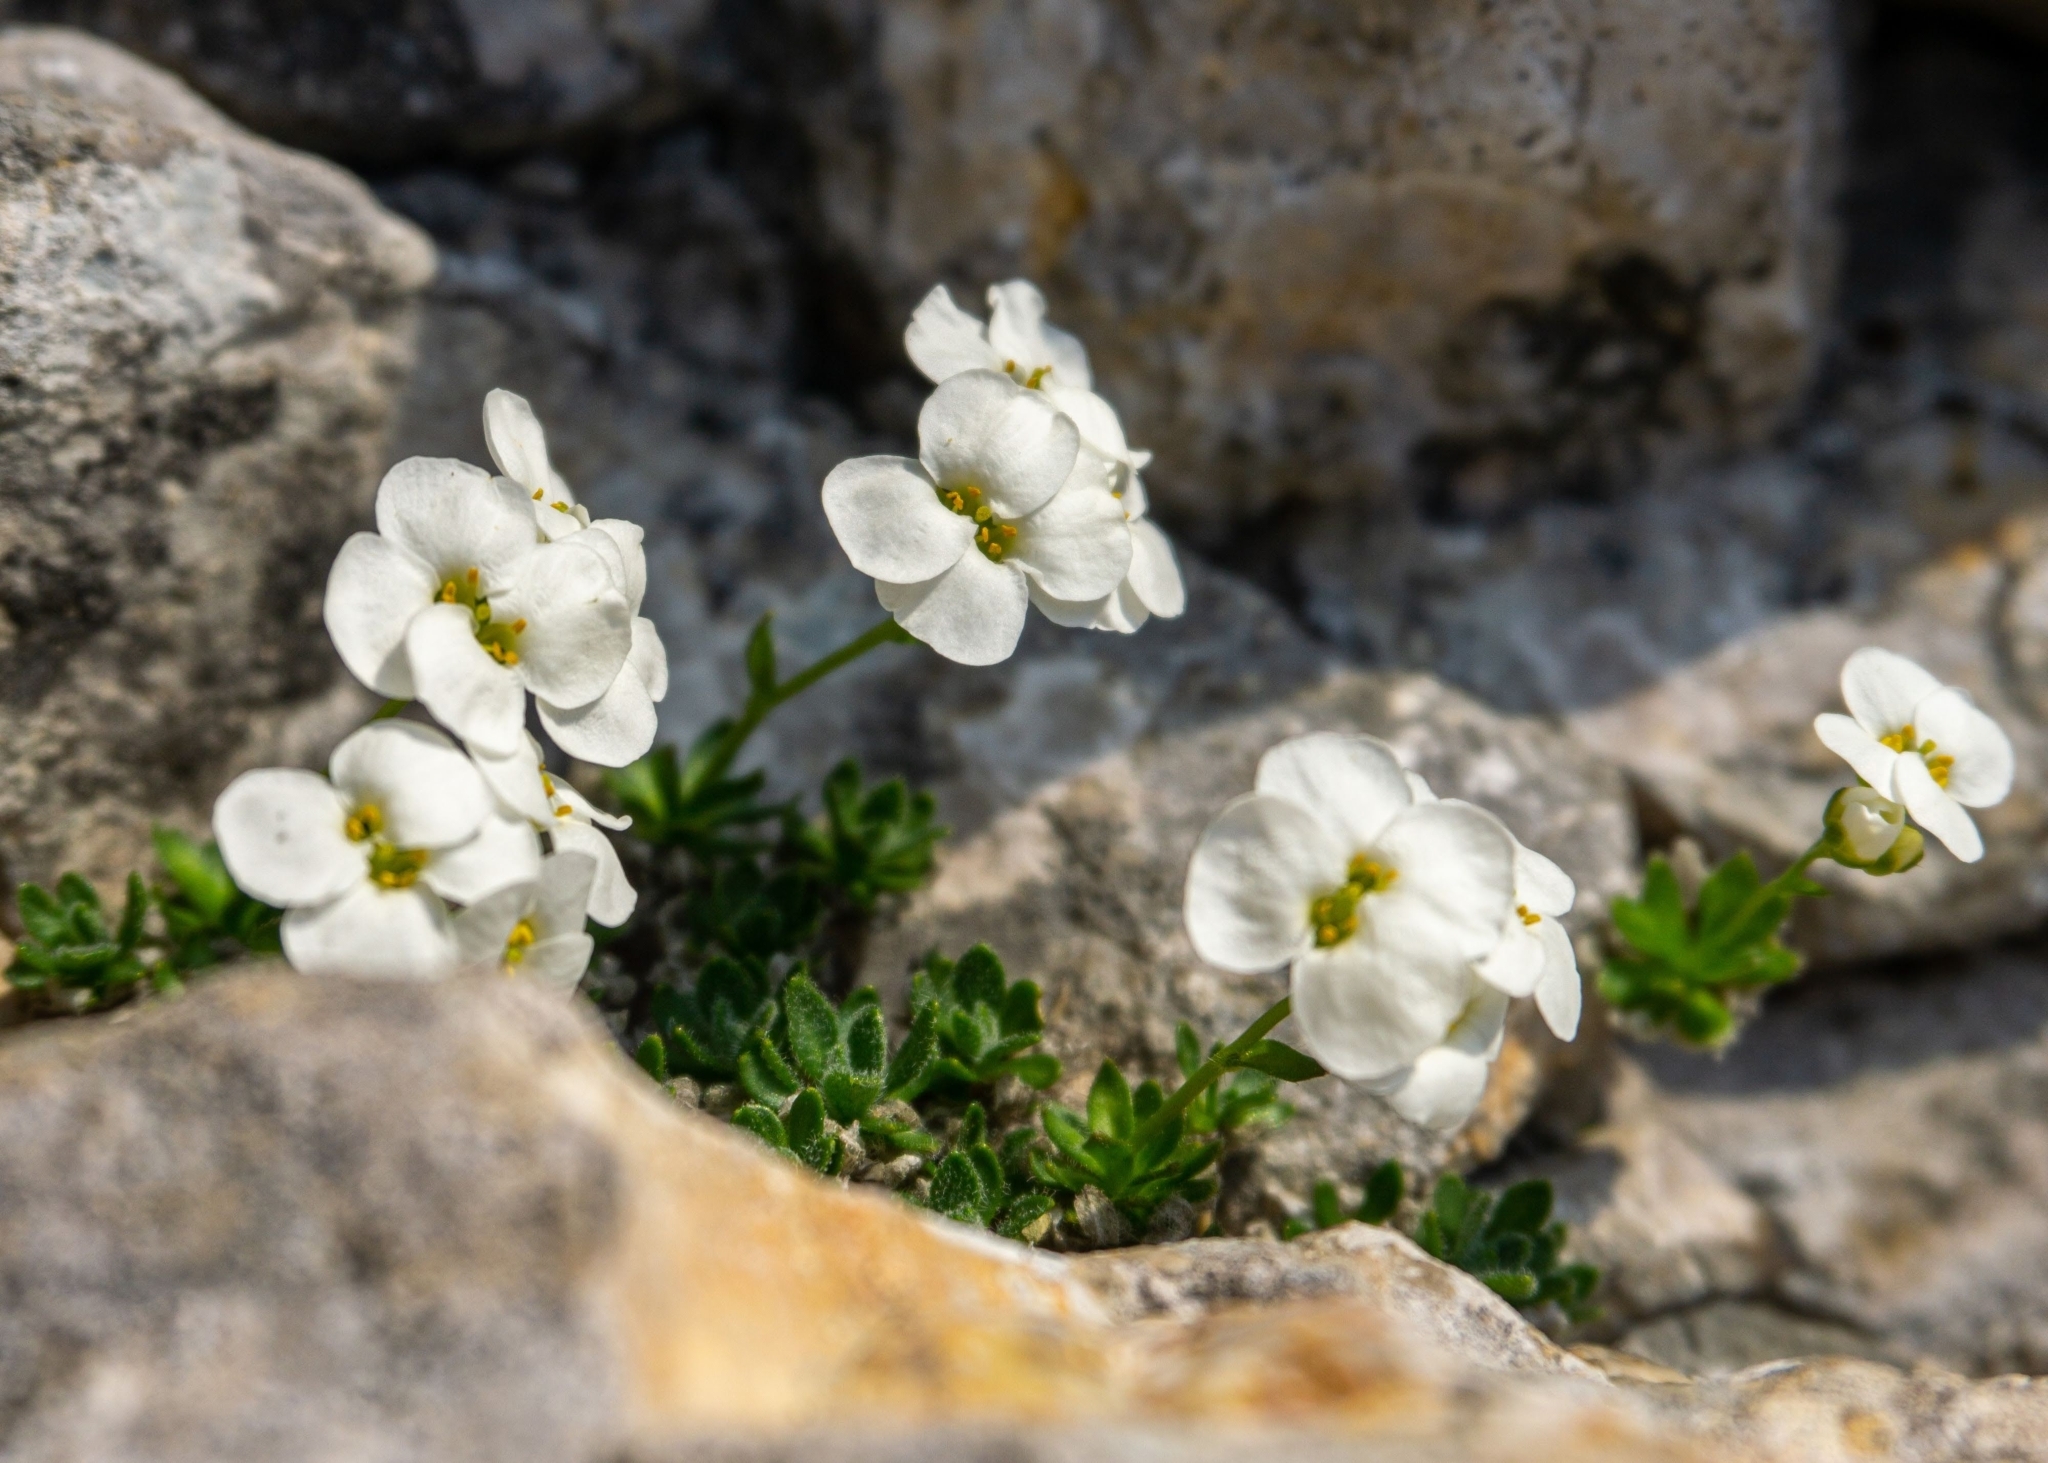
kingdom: Plantae
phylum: Tracheophyta
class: Magnoliopsida
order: Brassicales
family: Brassicaceae
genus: Arabis
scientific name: Arabis pumila
